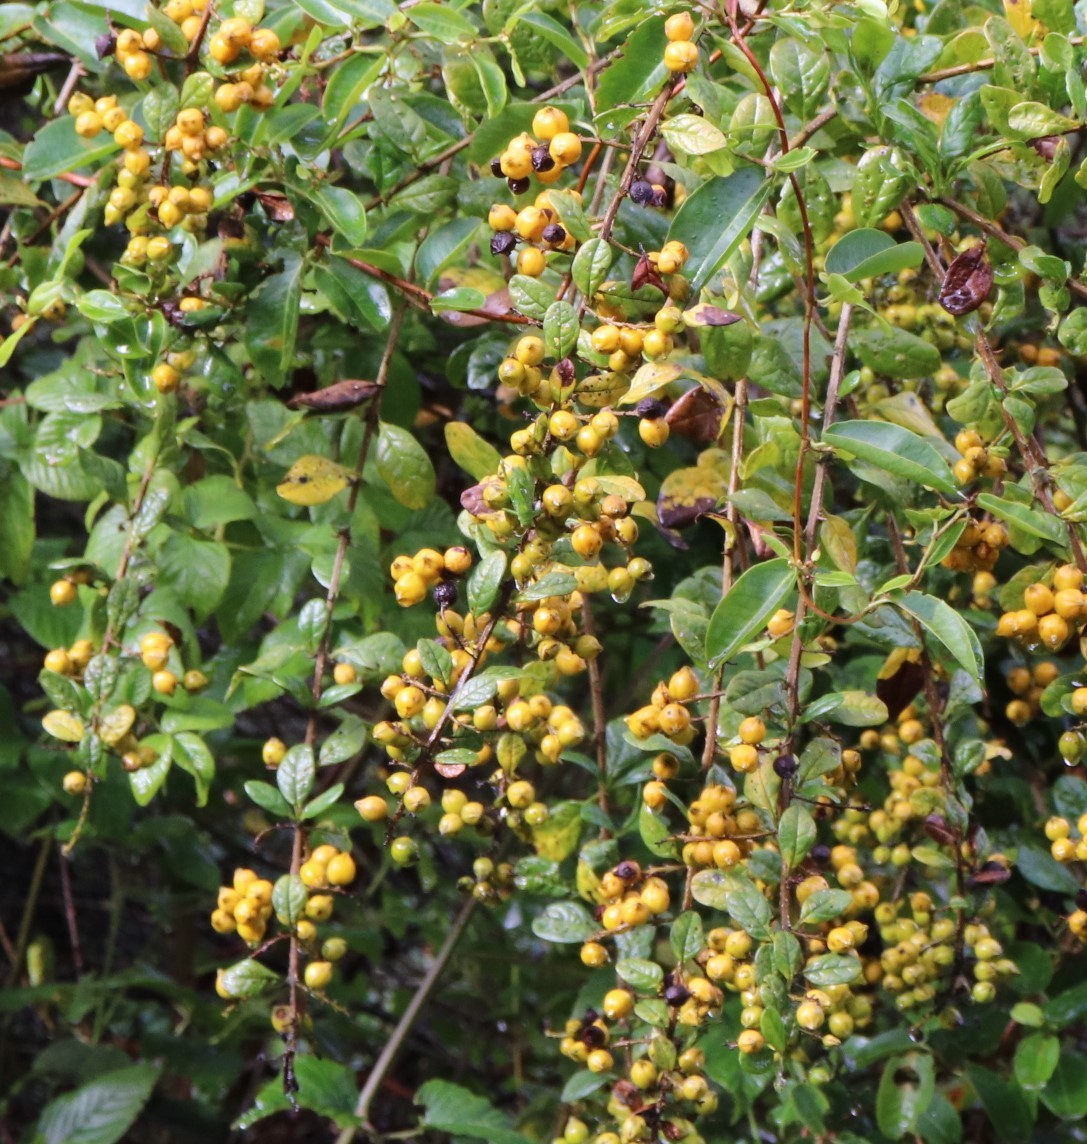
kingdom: Plantae
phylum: Tracheophyta
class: Magnoliopsida
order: Lamiales
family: Verbenaceae
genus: Duranta
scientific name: Duranta mutisii
